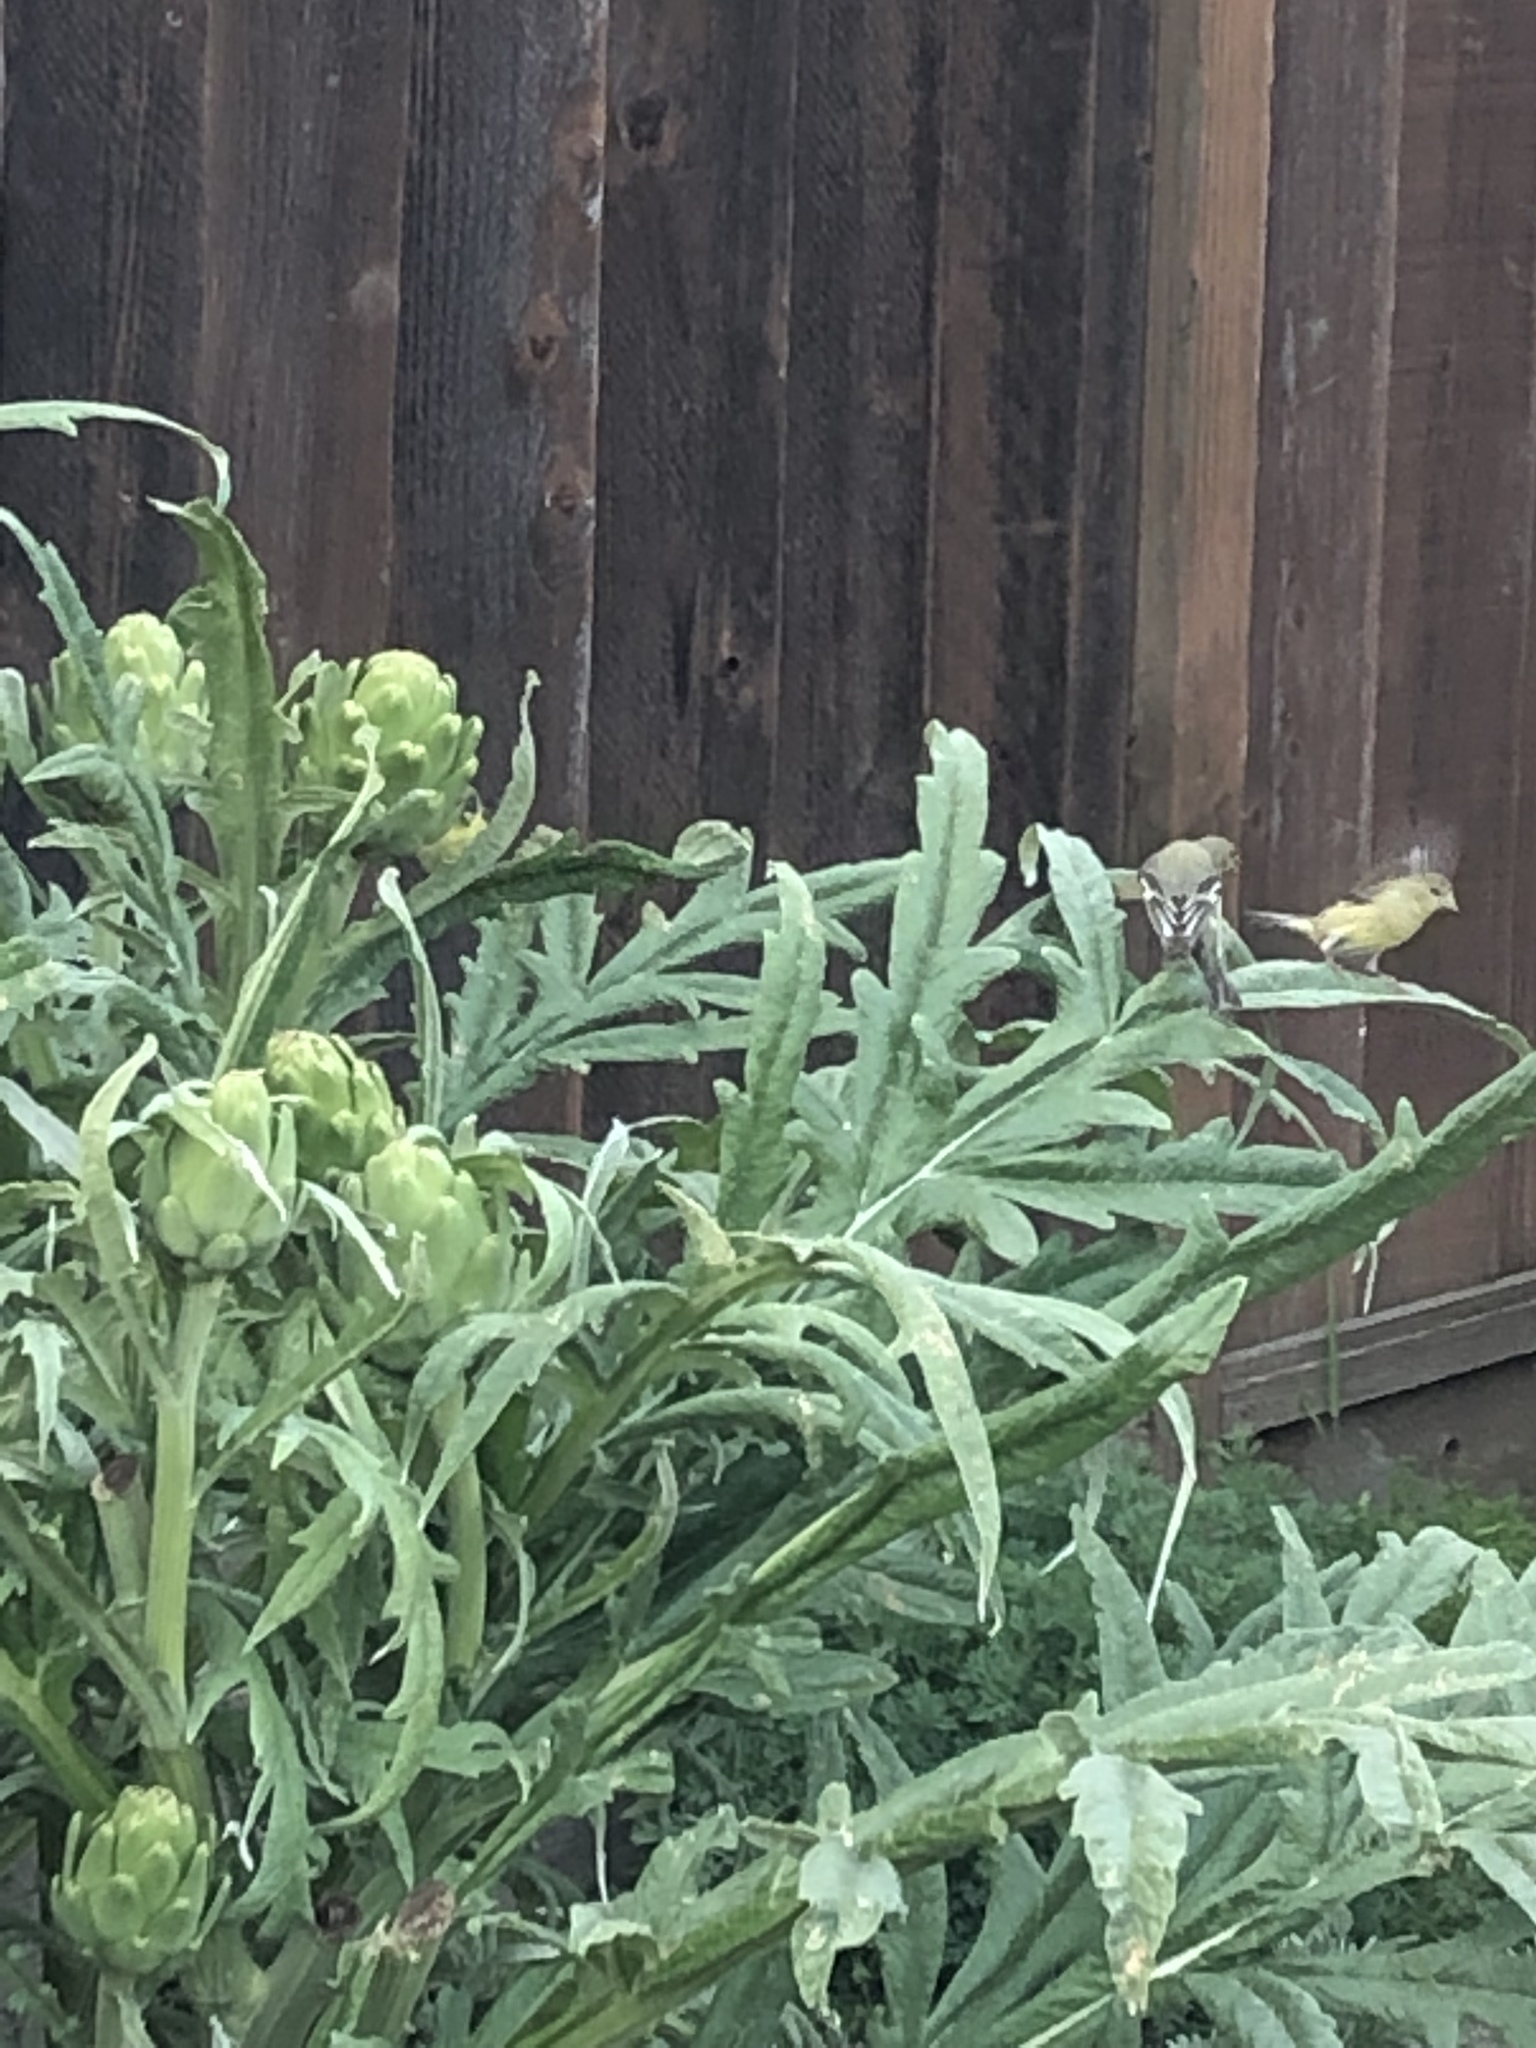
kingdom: Animalia
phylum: Chordata
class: Aves
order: Passeriformes
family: Fringillidae
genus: Spinus
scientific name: Spinus psaltria
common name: Lesser goldfinch
